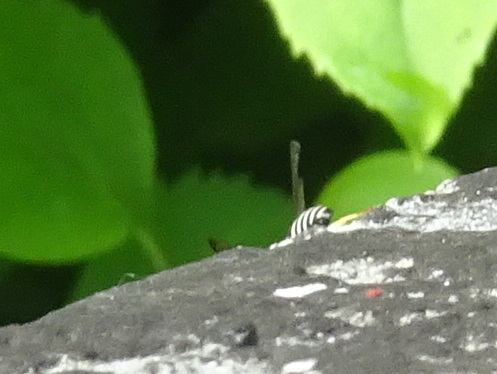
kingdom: Animalia
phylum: Arthropoda
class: Insecta
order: Hymenoptera
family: Vespidae
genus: Ancistrocerus
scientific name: Ancistrocerus waldenii
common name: Walden’s potter wasp
